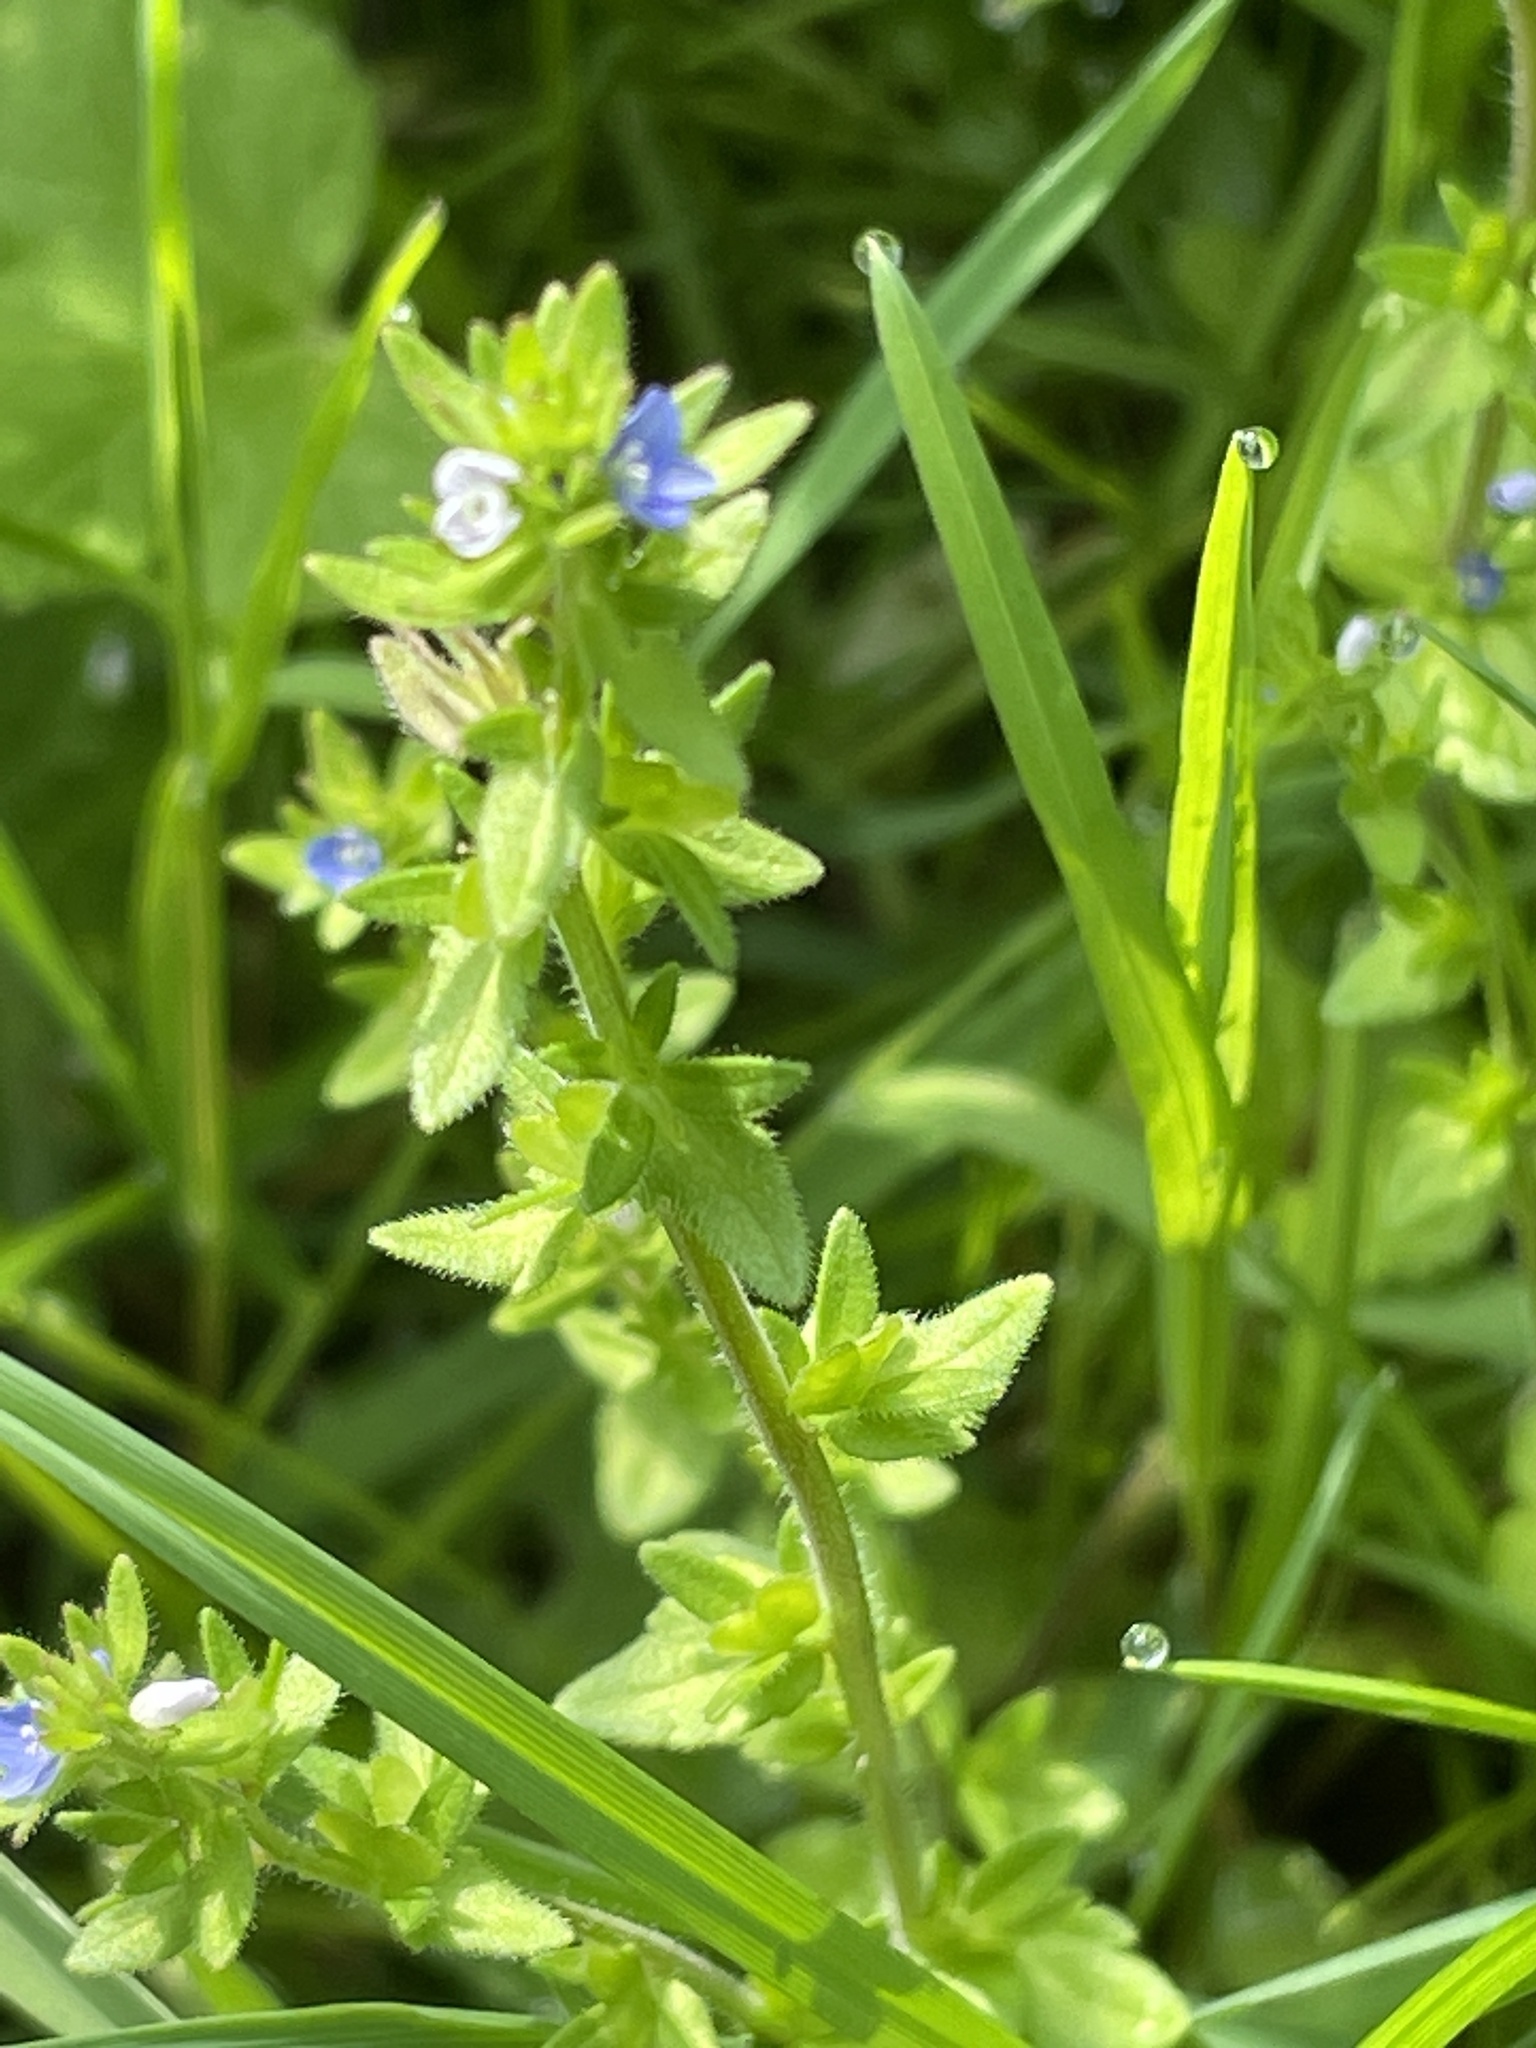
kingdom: Plantae
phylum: Tracheophyta
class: Magnoliopsida
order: Lamiales
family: Plantaginaceae
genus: Veronica
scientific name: Veronica arvensis
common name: Corn speedwell
